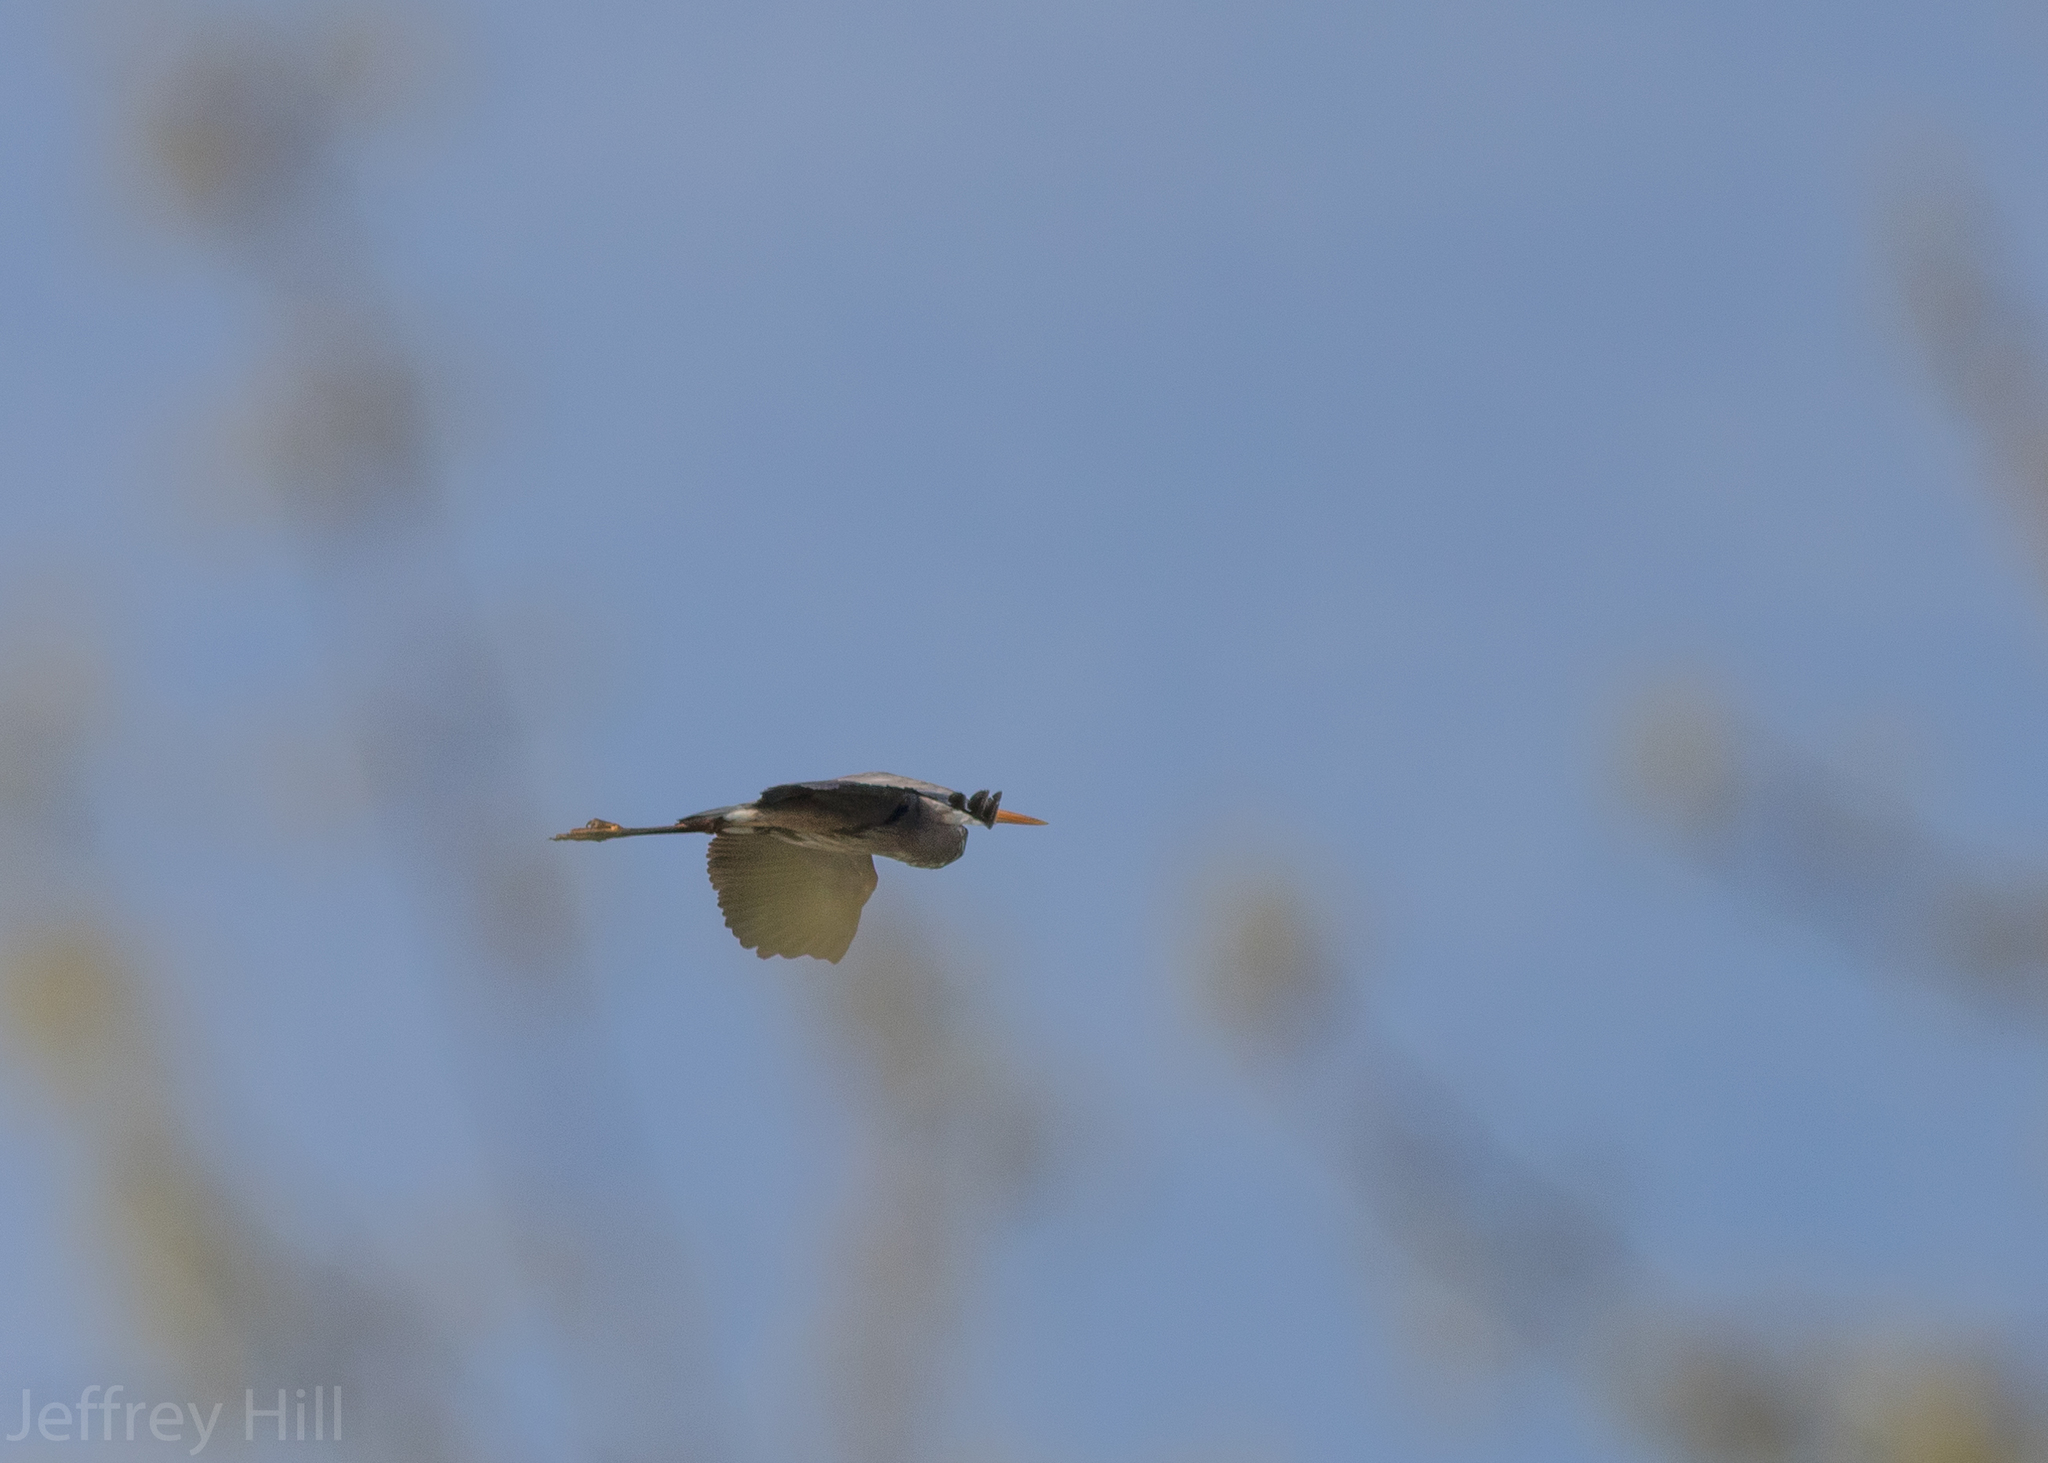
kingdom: Animalia
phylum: Chordata
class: Aves
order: Pelecaniformes
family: Ardeidae
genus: Ardea
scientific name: Ardea herodias
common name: Great blue heron
